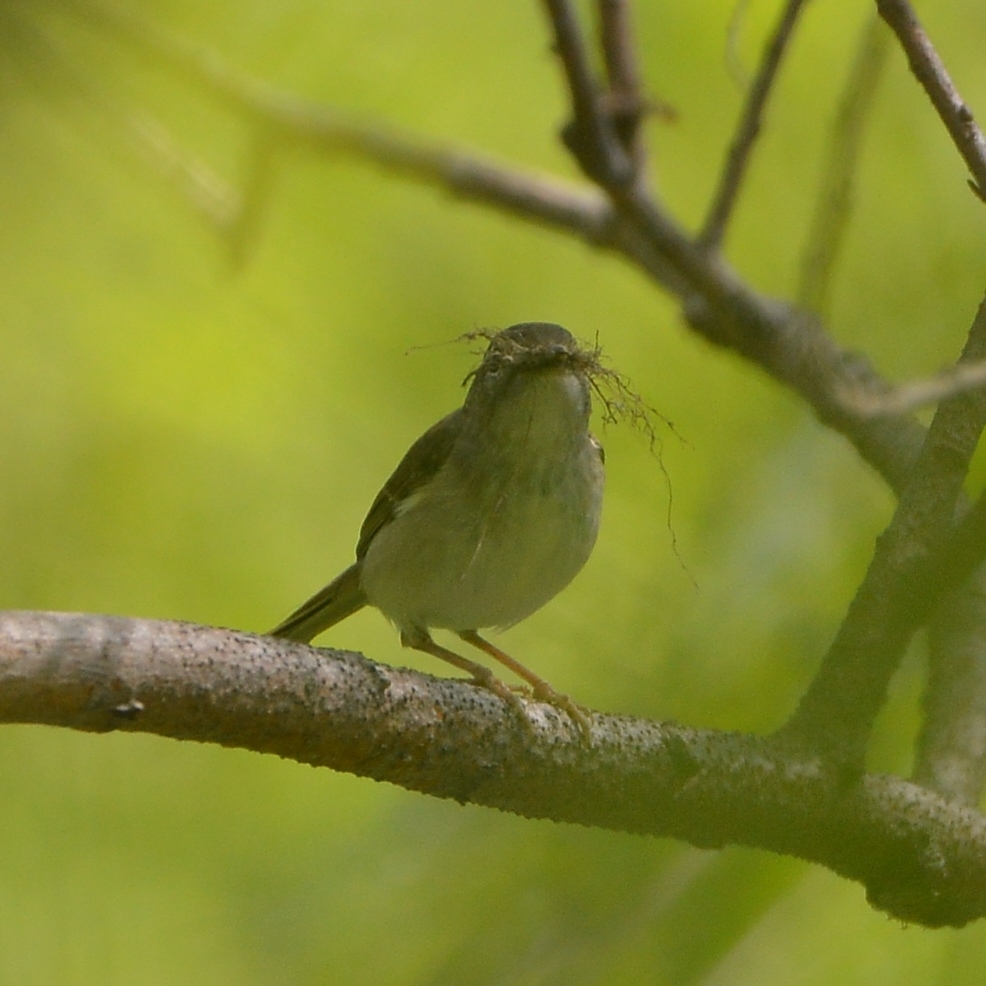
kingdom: Animalia
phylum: Chordata
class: Aves
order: Passeriformes
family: Phylloscopidae
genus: Phylloscopus
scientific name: Phylloscopus borealoides
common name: Sakhalin leaf warbler
